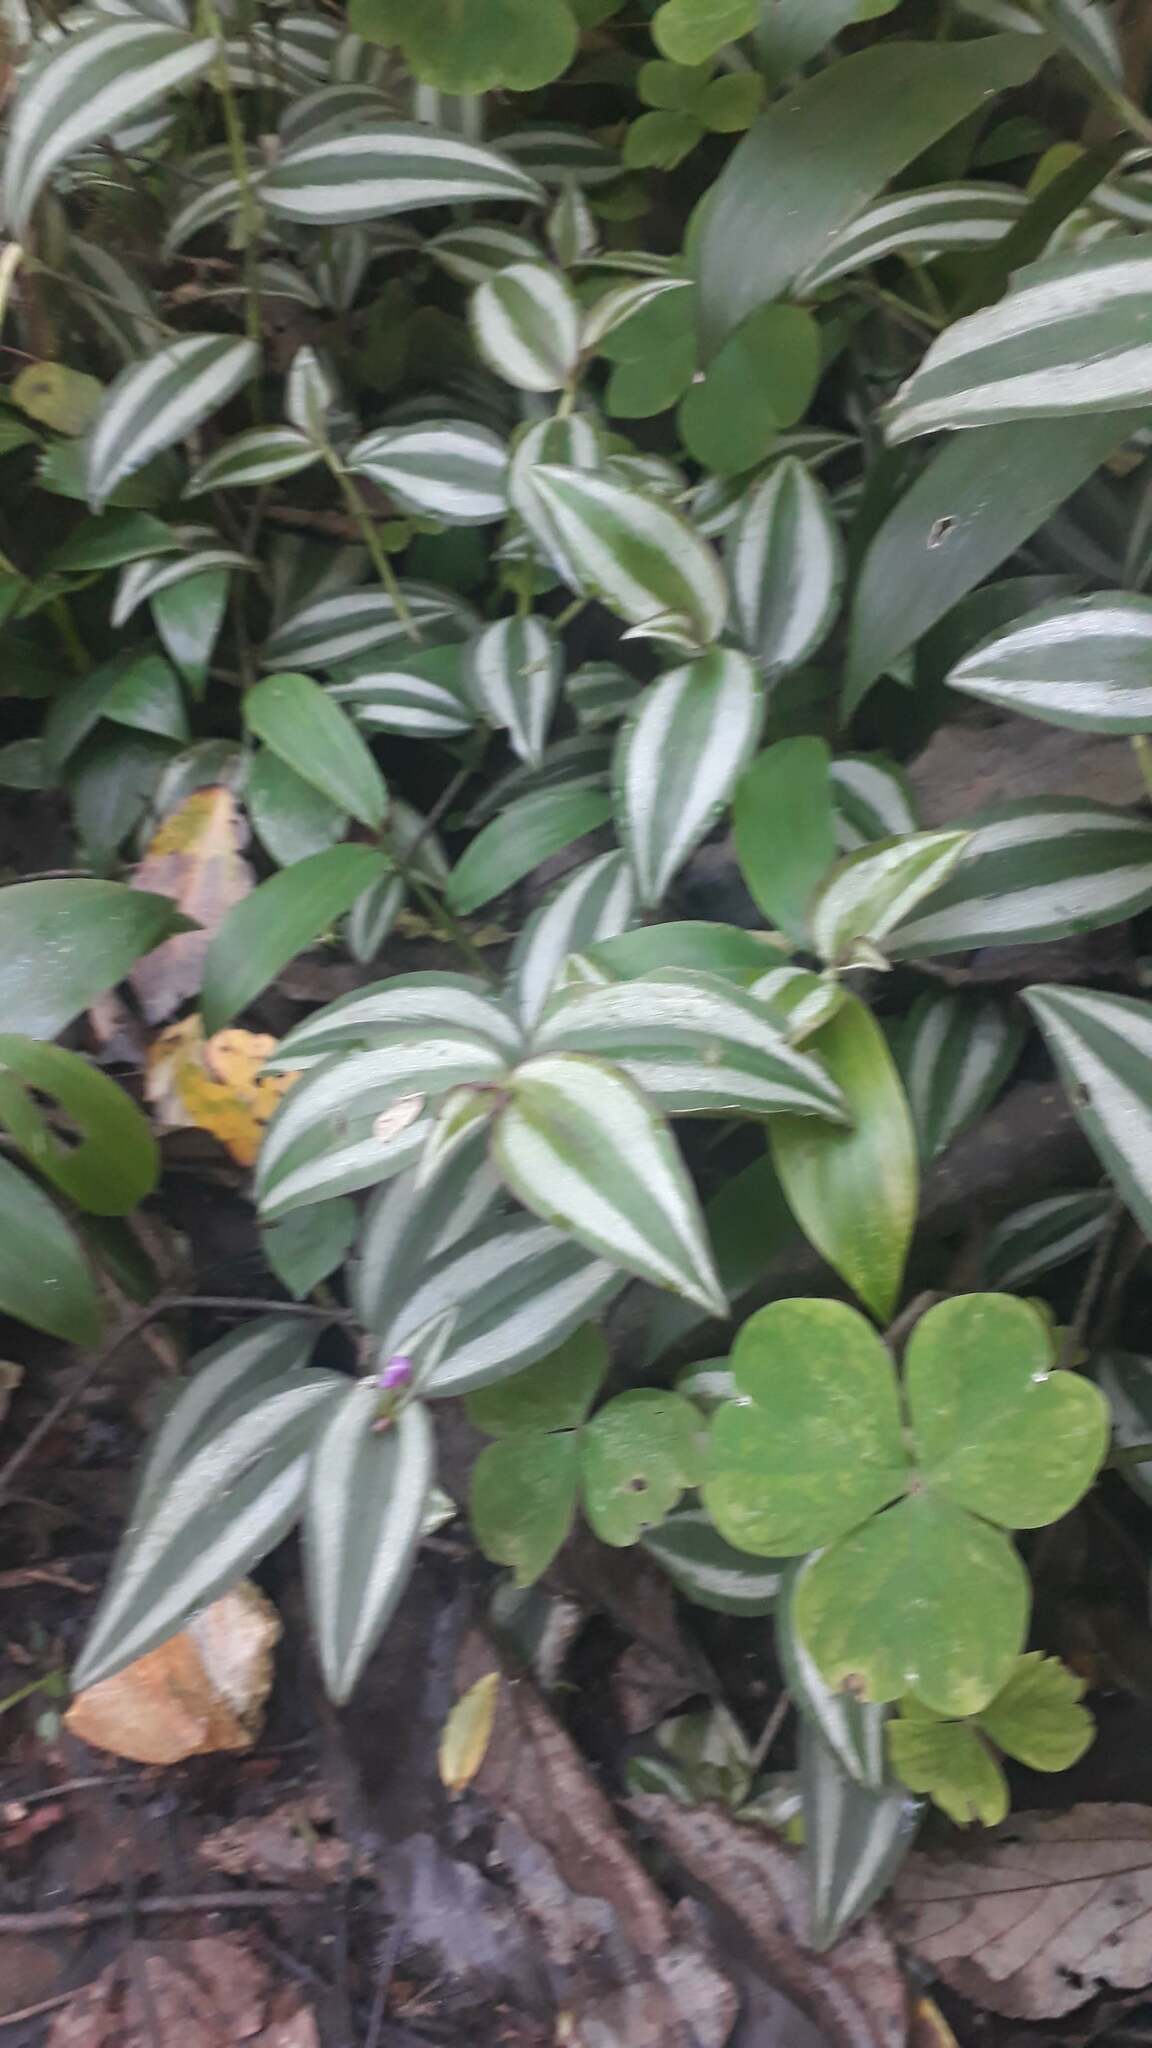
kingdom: Plantae
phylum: Tracheophyta
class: Liliopsida
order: Commelinales
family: Commelinaceae
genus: Tradescantia
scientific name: Tradescantia zebrina
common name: Inchplant
